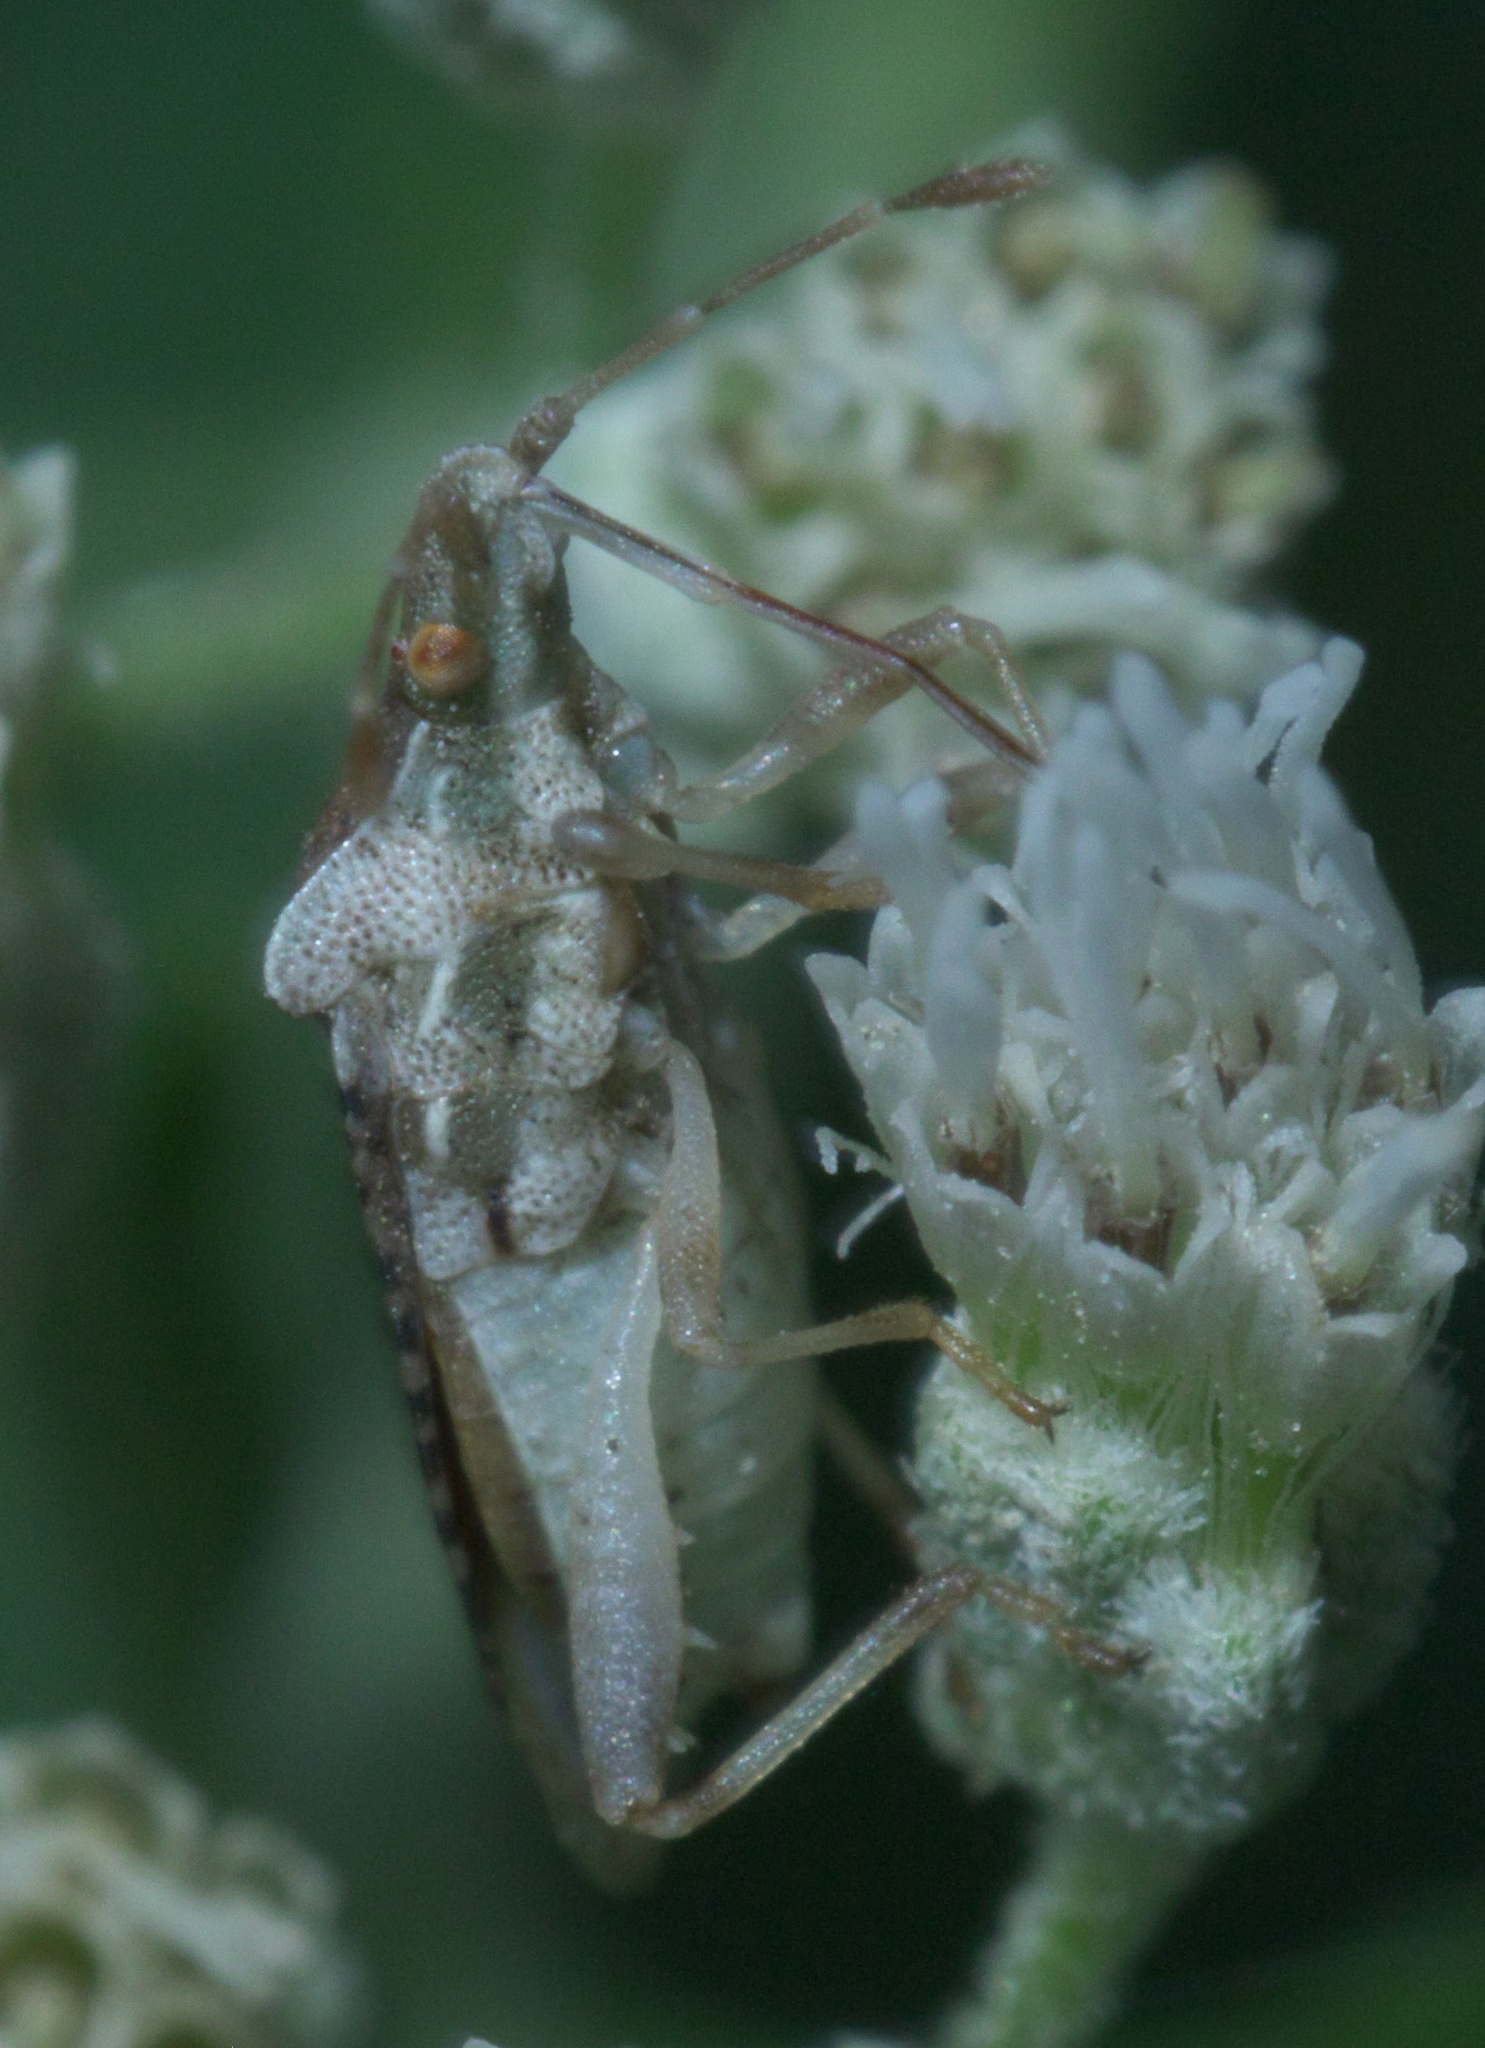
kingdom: Animalia
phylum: Arthropoda
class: Insecta
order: Hemiptera
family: Rhopalidae
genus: Harmostes
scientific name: Harmostes fraterculus
